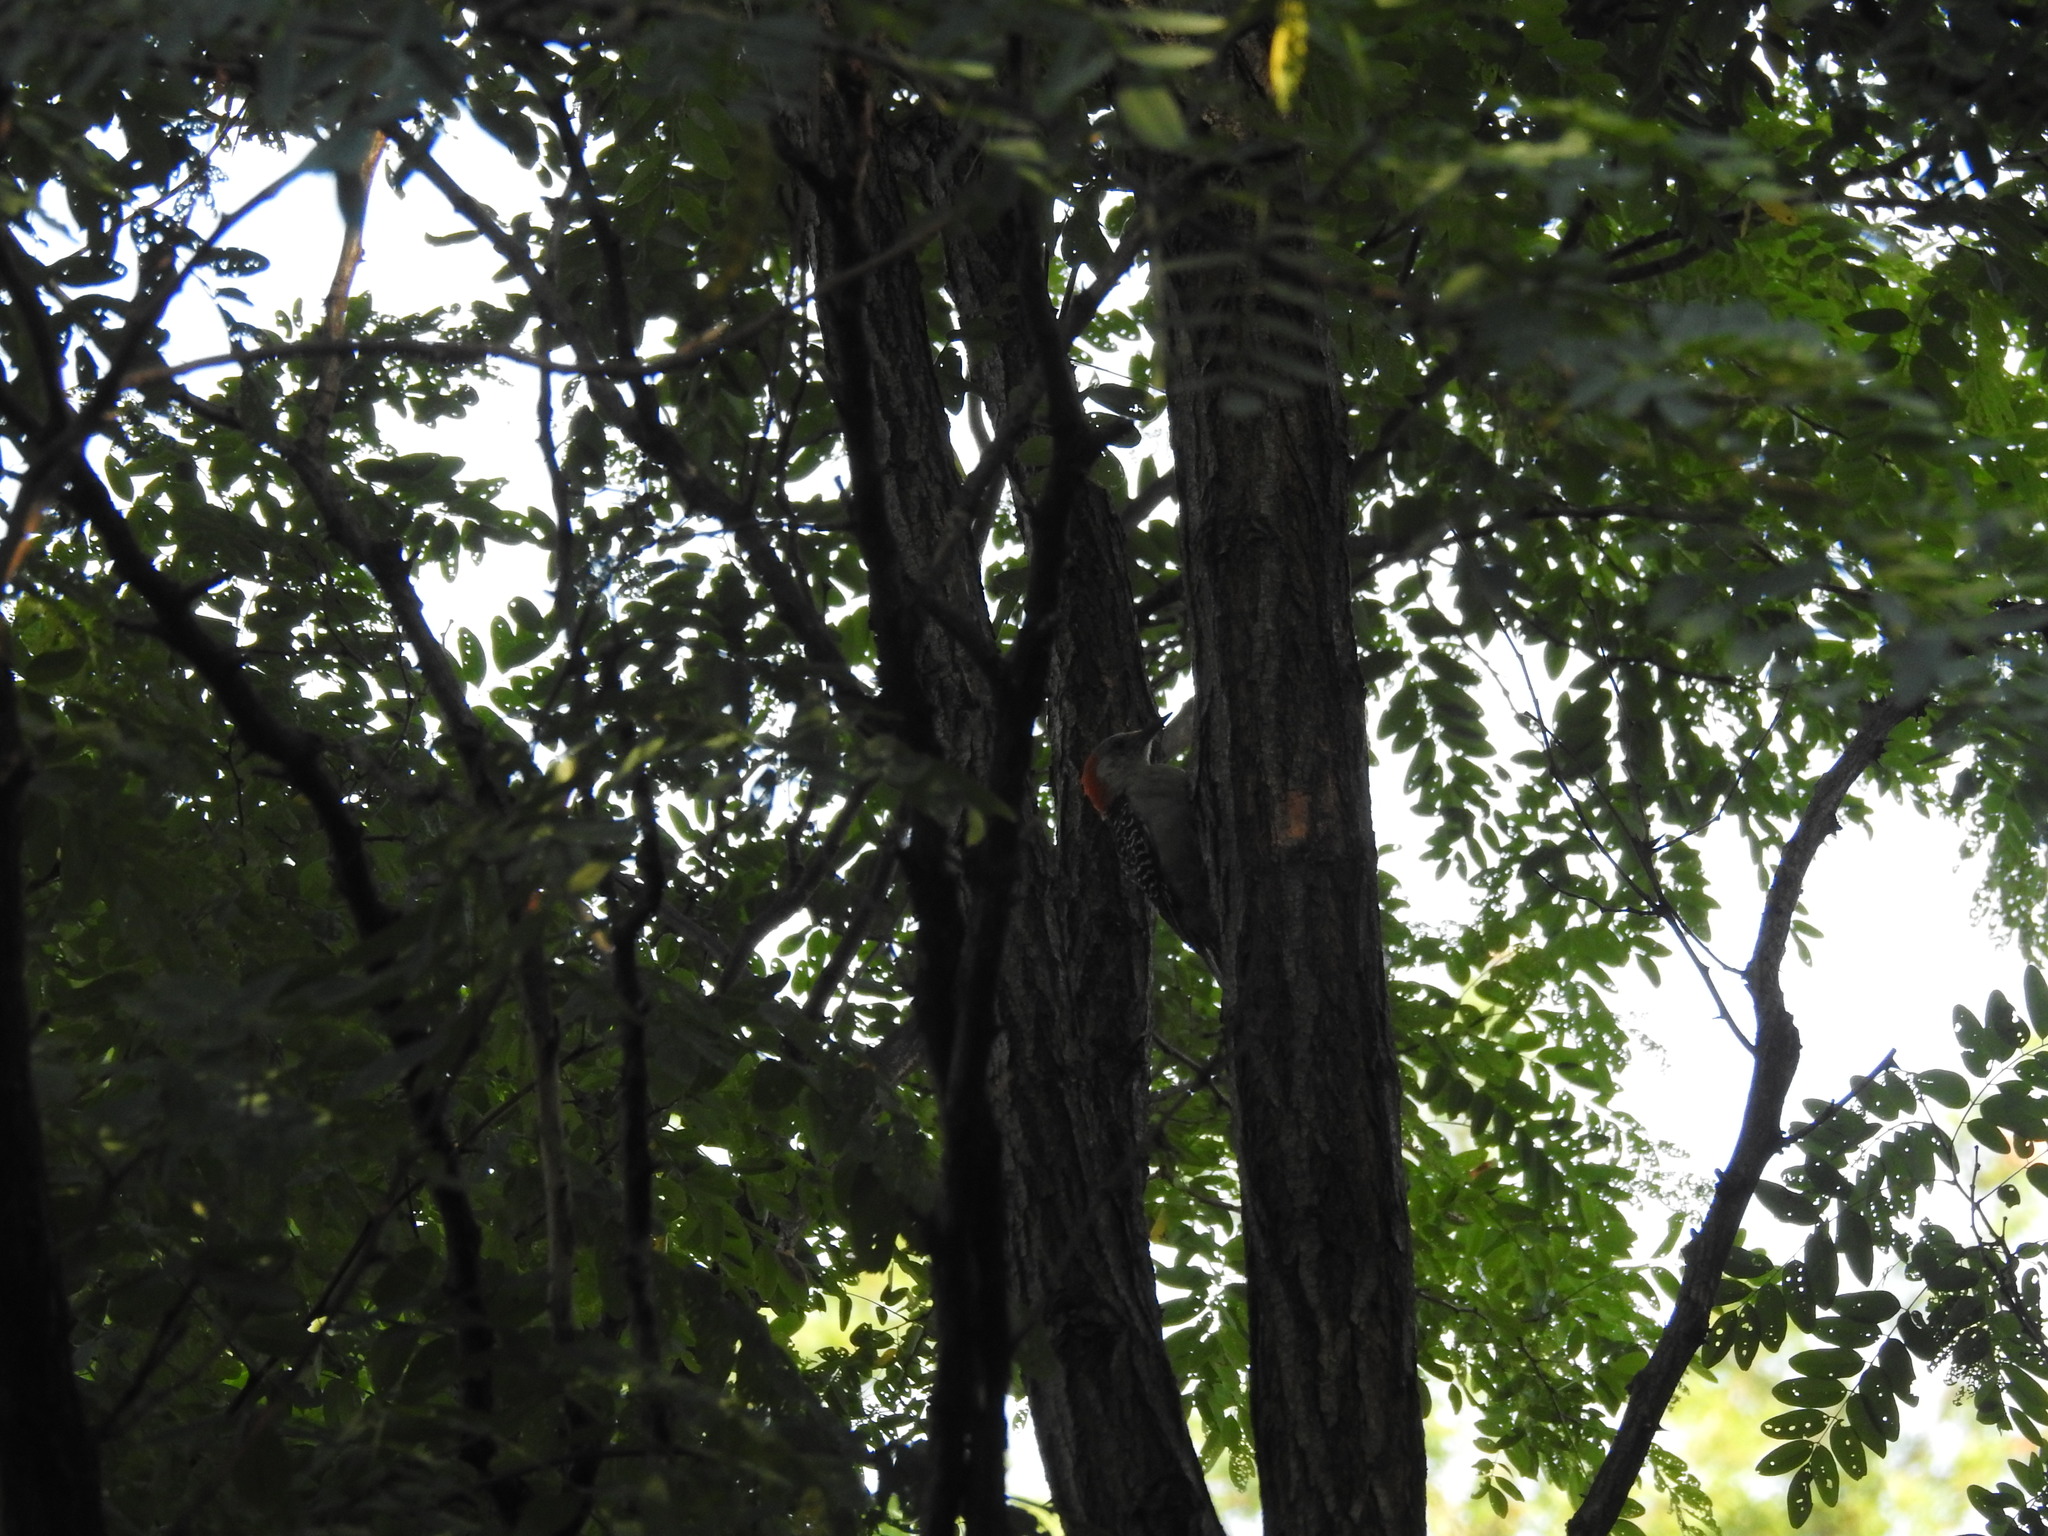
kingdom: Animalia
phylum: Chordata
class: Aves
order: Piciformes
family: Picidae
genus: Melanerpes
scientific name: Melanerpes carolinus
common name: Red-bellied woodpecker
